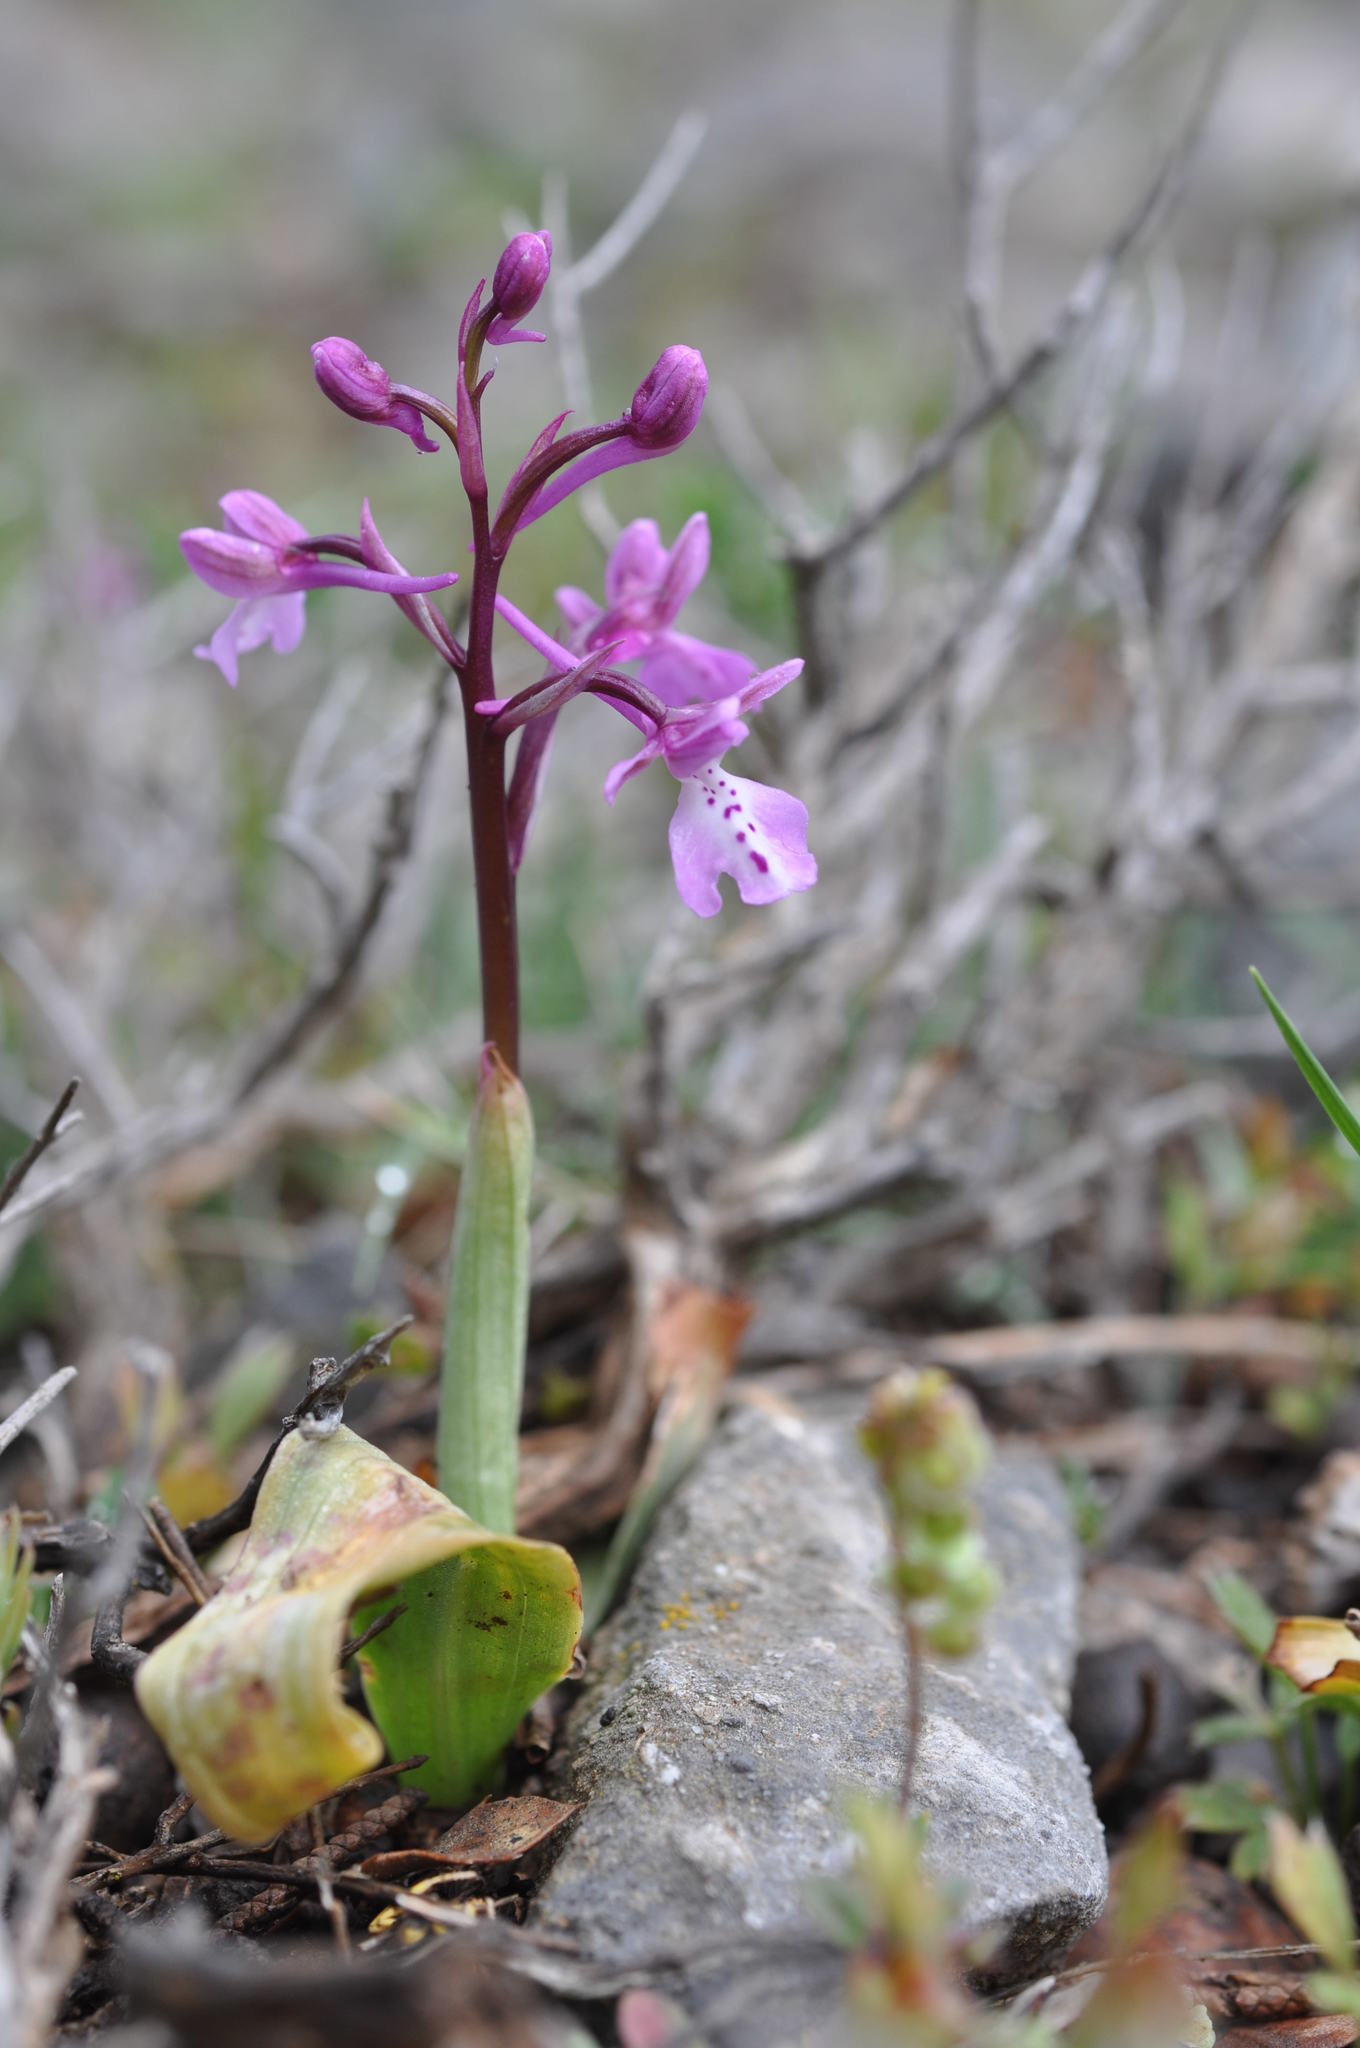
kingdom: Plantae
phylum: Tracheophyta
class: Liliopsida
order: Asparagales
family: Orchidaceae
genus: Orchis
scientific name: Orchis anatolica
